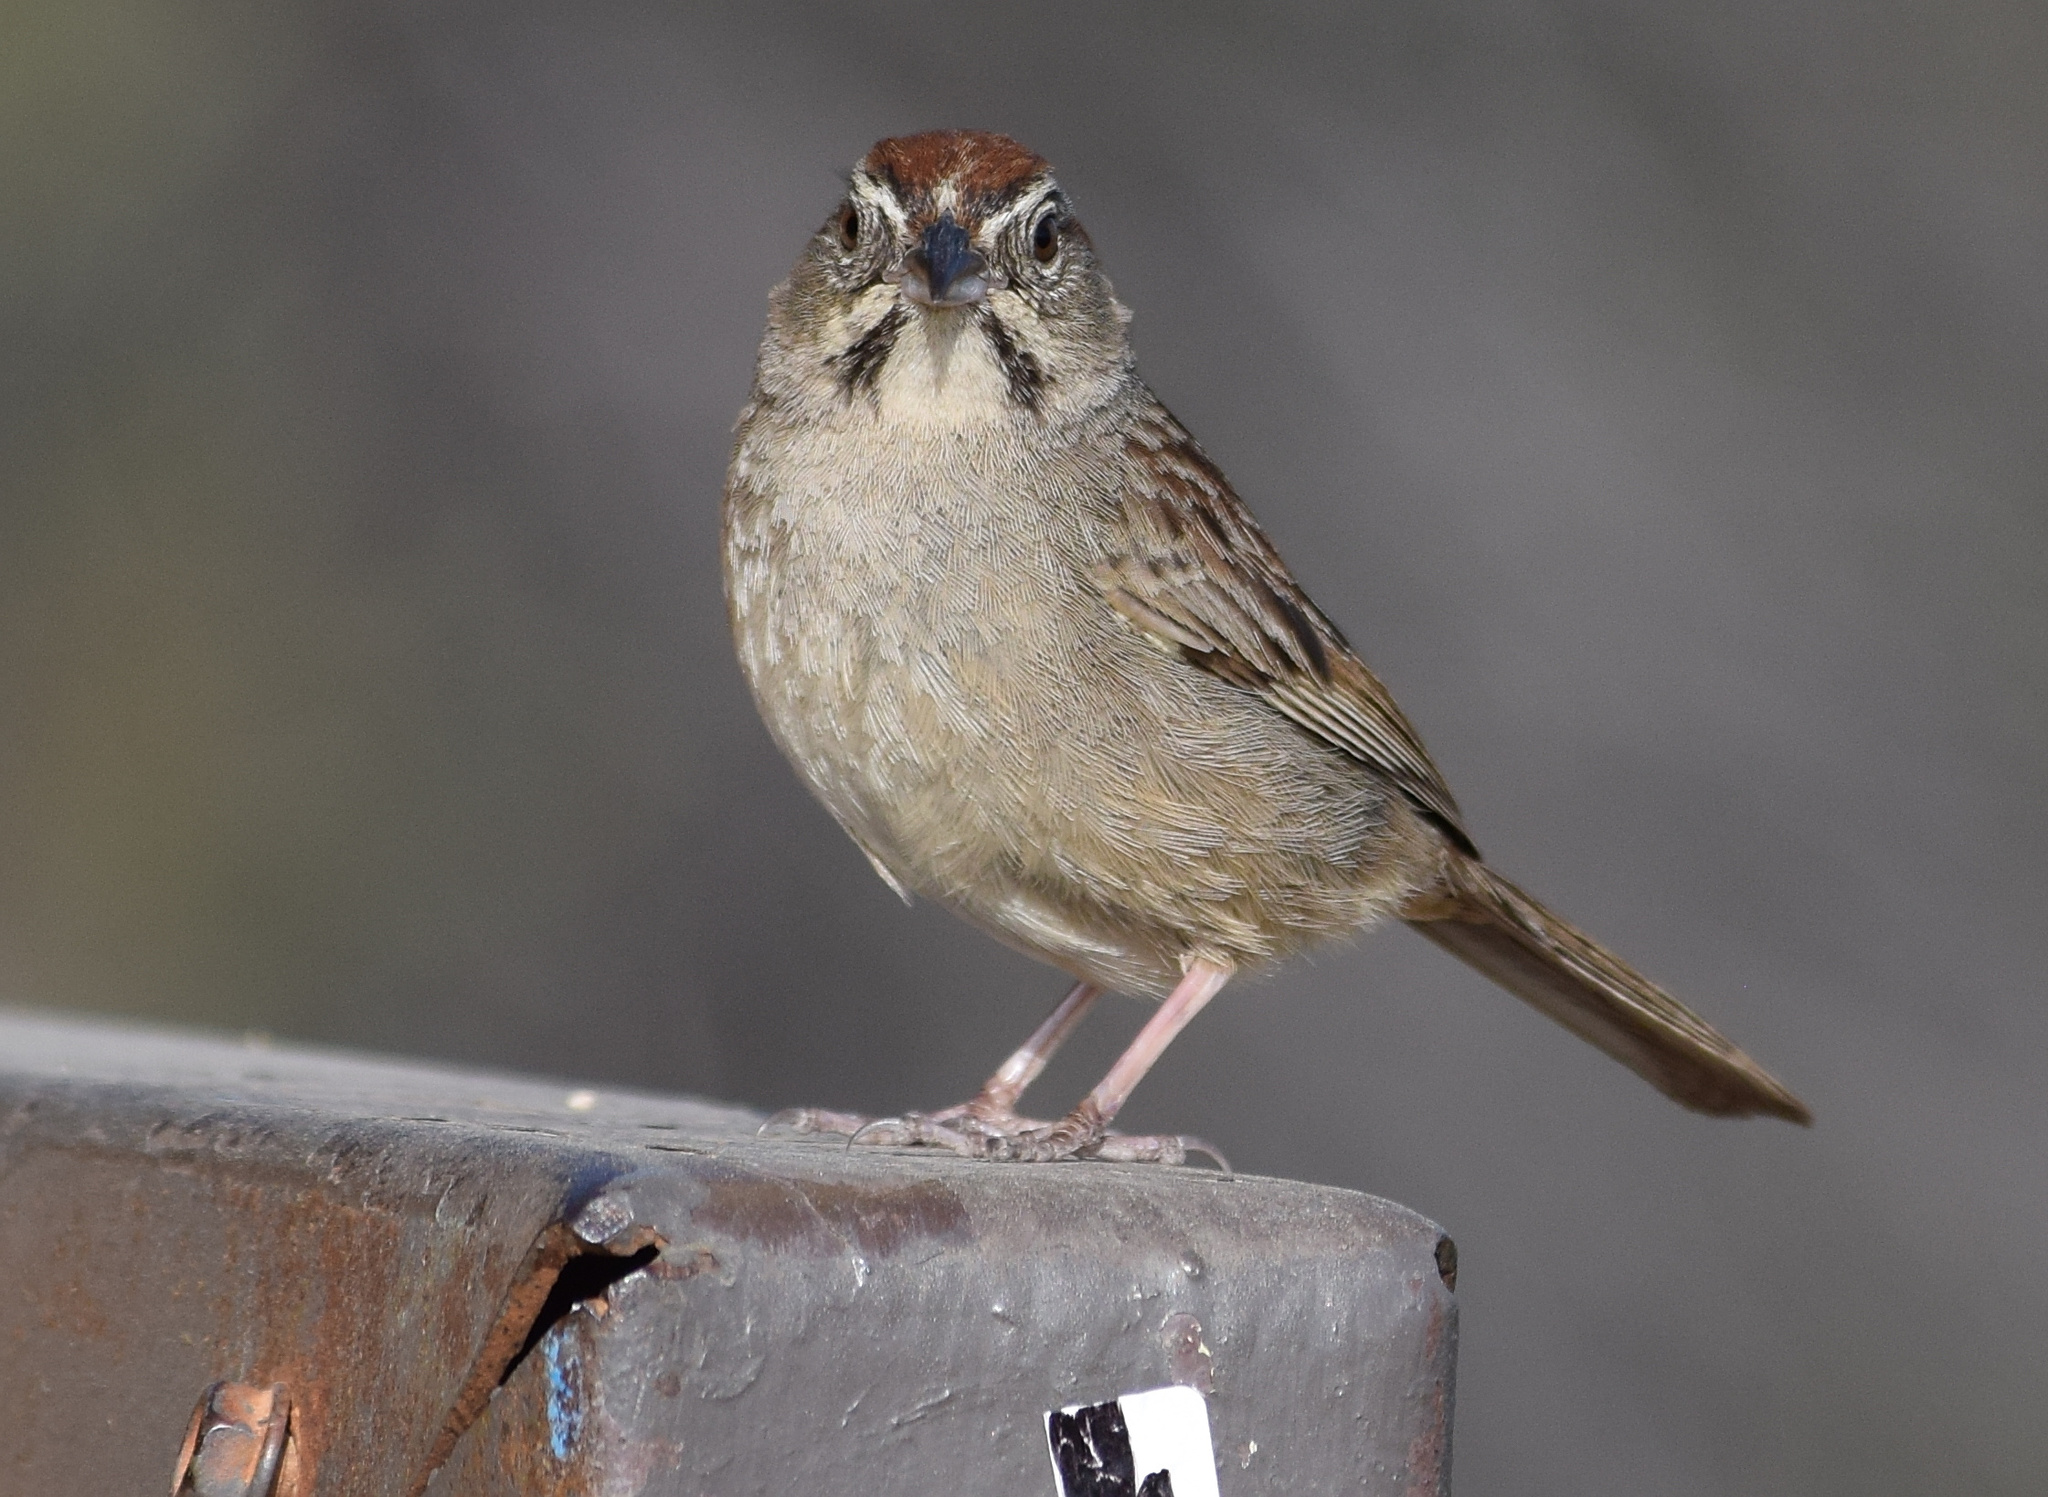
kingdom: Animalia
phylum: Chordata
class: Aves
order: Passeriformes
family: Passerellidae
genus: Aimophila
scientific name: Aimophila ruficeps
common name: Rufous-crowned sparrow
